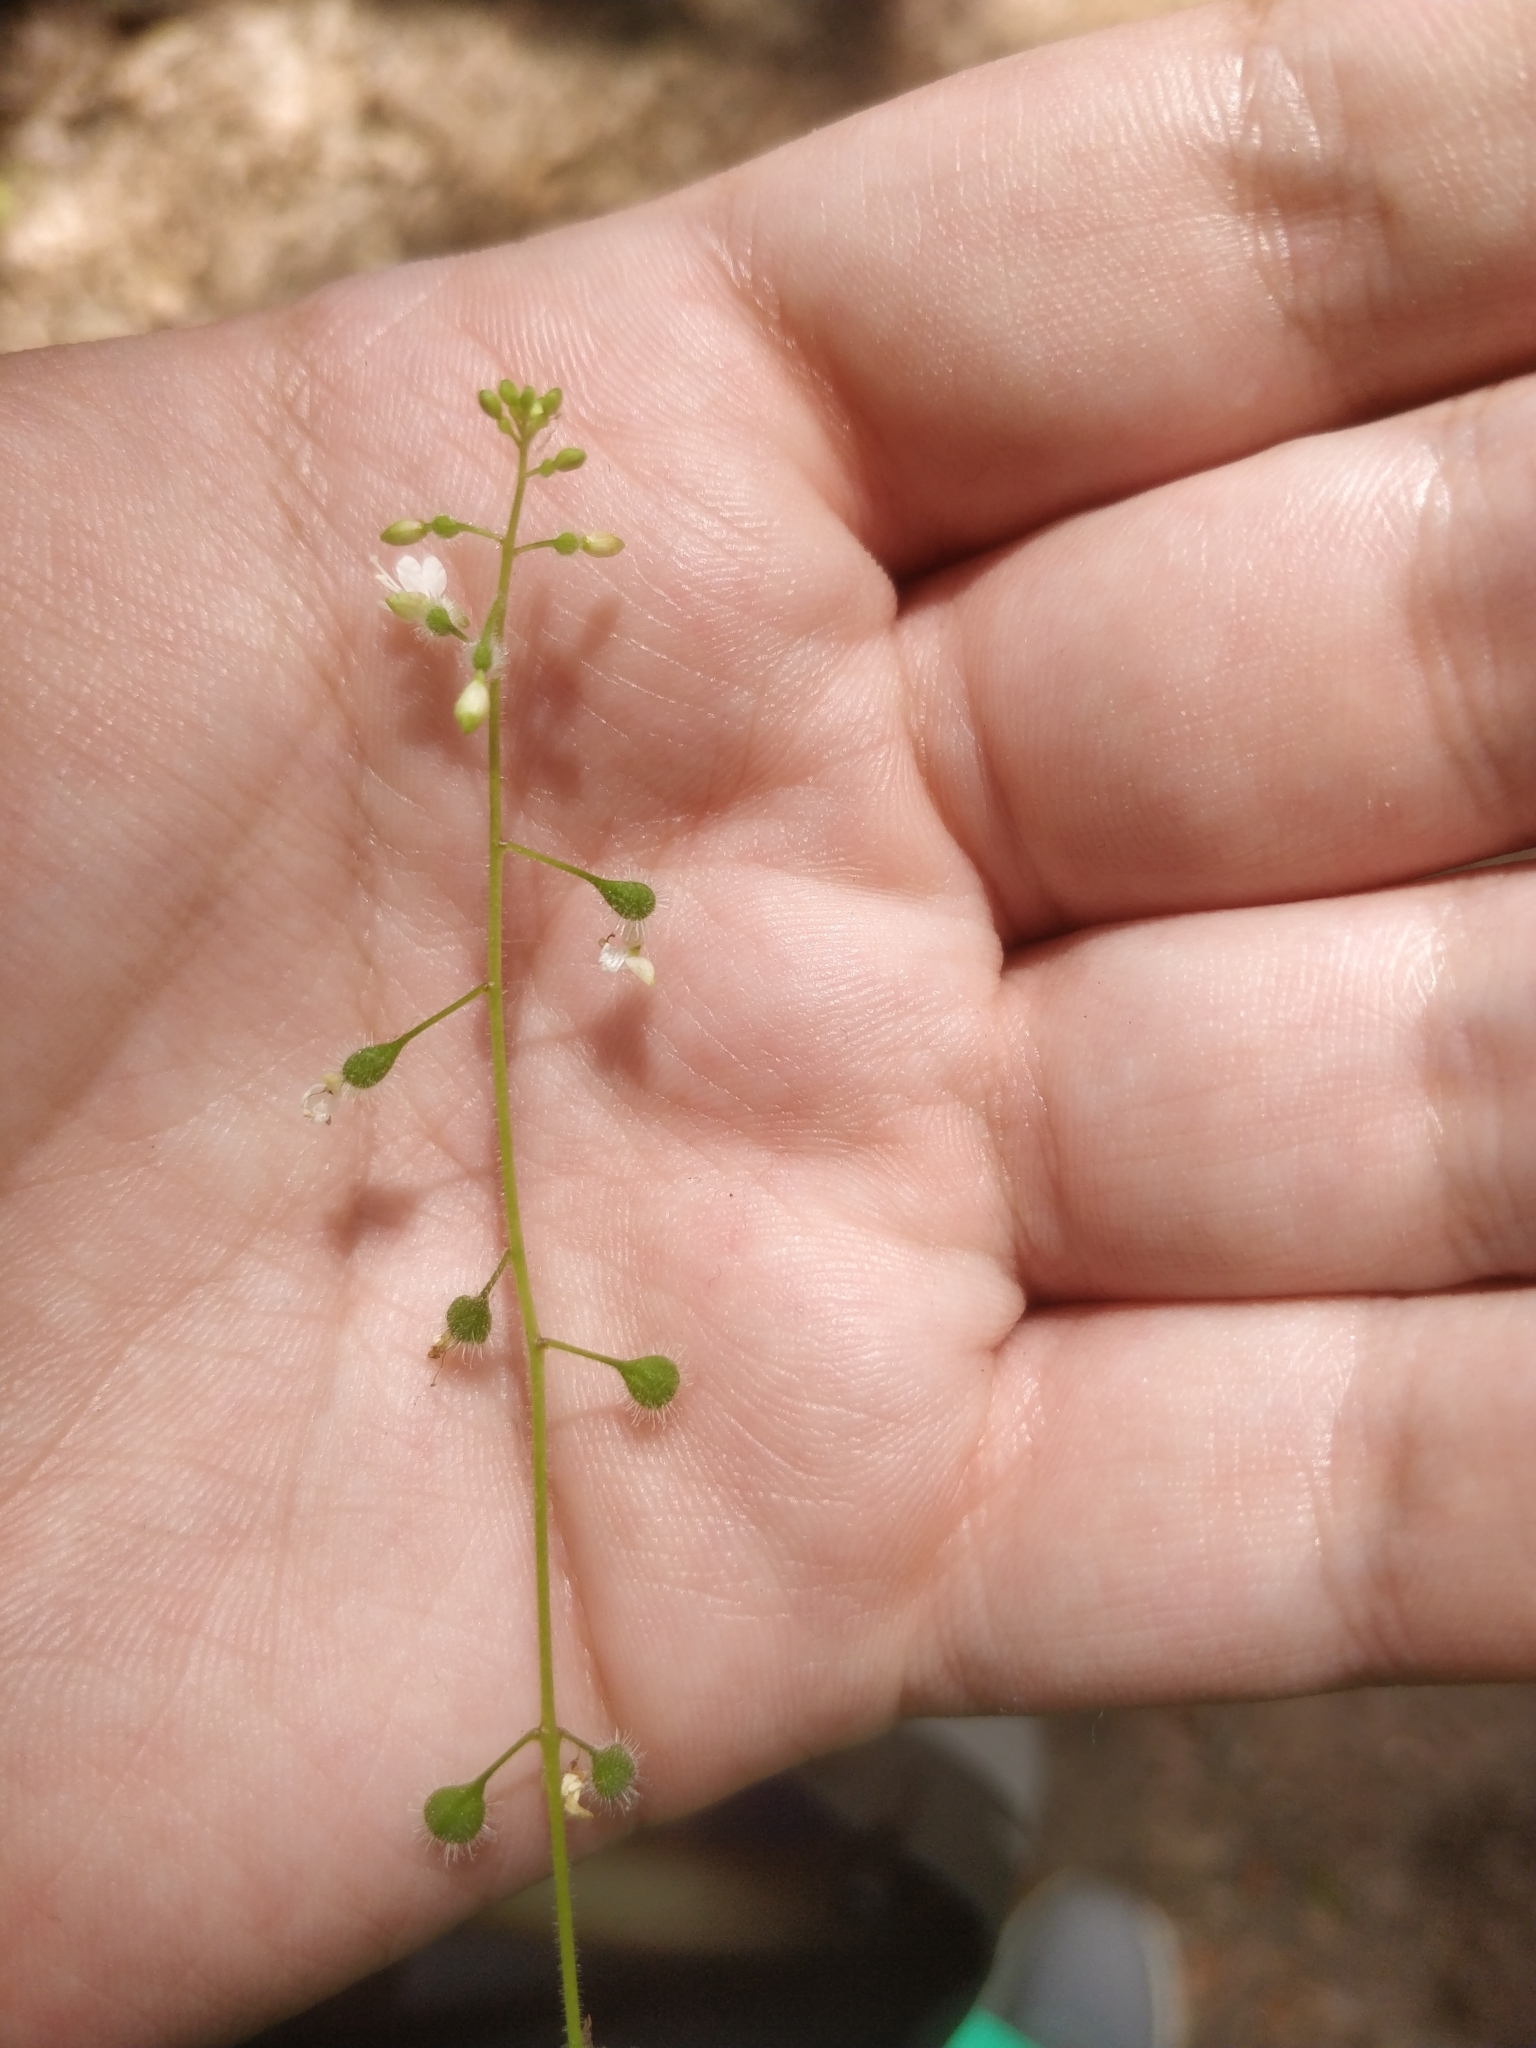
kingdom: Plantae
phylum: Tracheophyta
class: Magnoliopsida
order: Myrtales
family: Onagraceae
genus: Circaea
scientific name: Circaea canadensis
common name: Broad-leaved enchanter's nightshade
